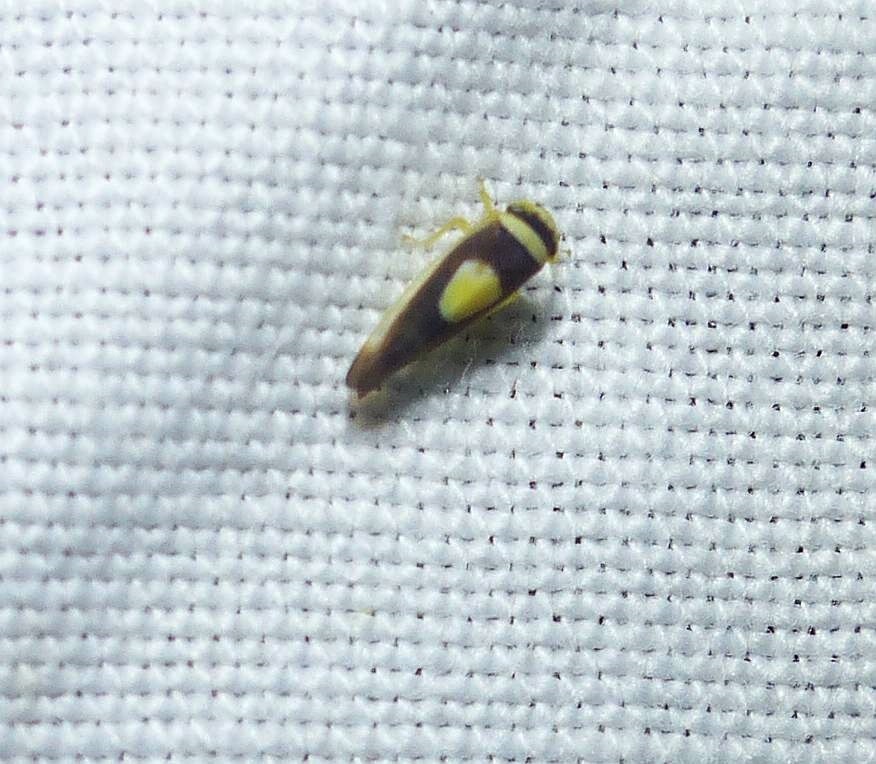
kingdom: Animalia
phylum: Arthropoda
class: Insecta
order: Hemiptera
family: Cicadellidae
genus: Colladonus
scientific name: Colladonus clitellarius
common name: The saddleback leafhopper
